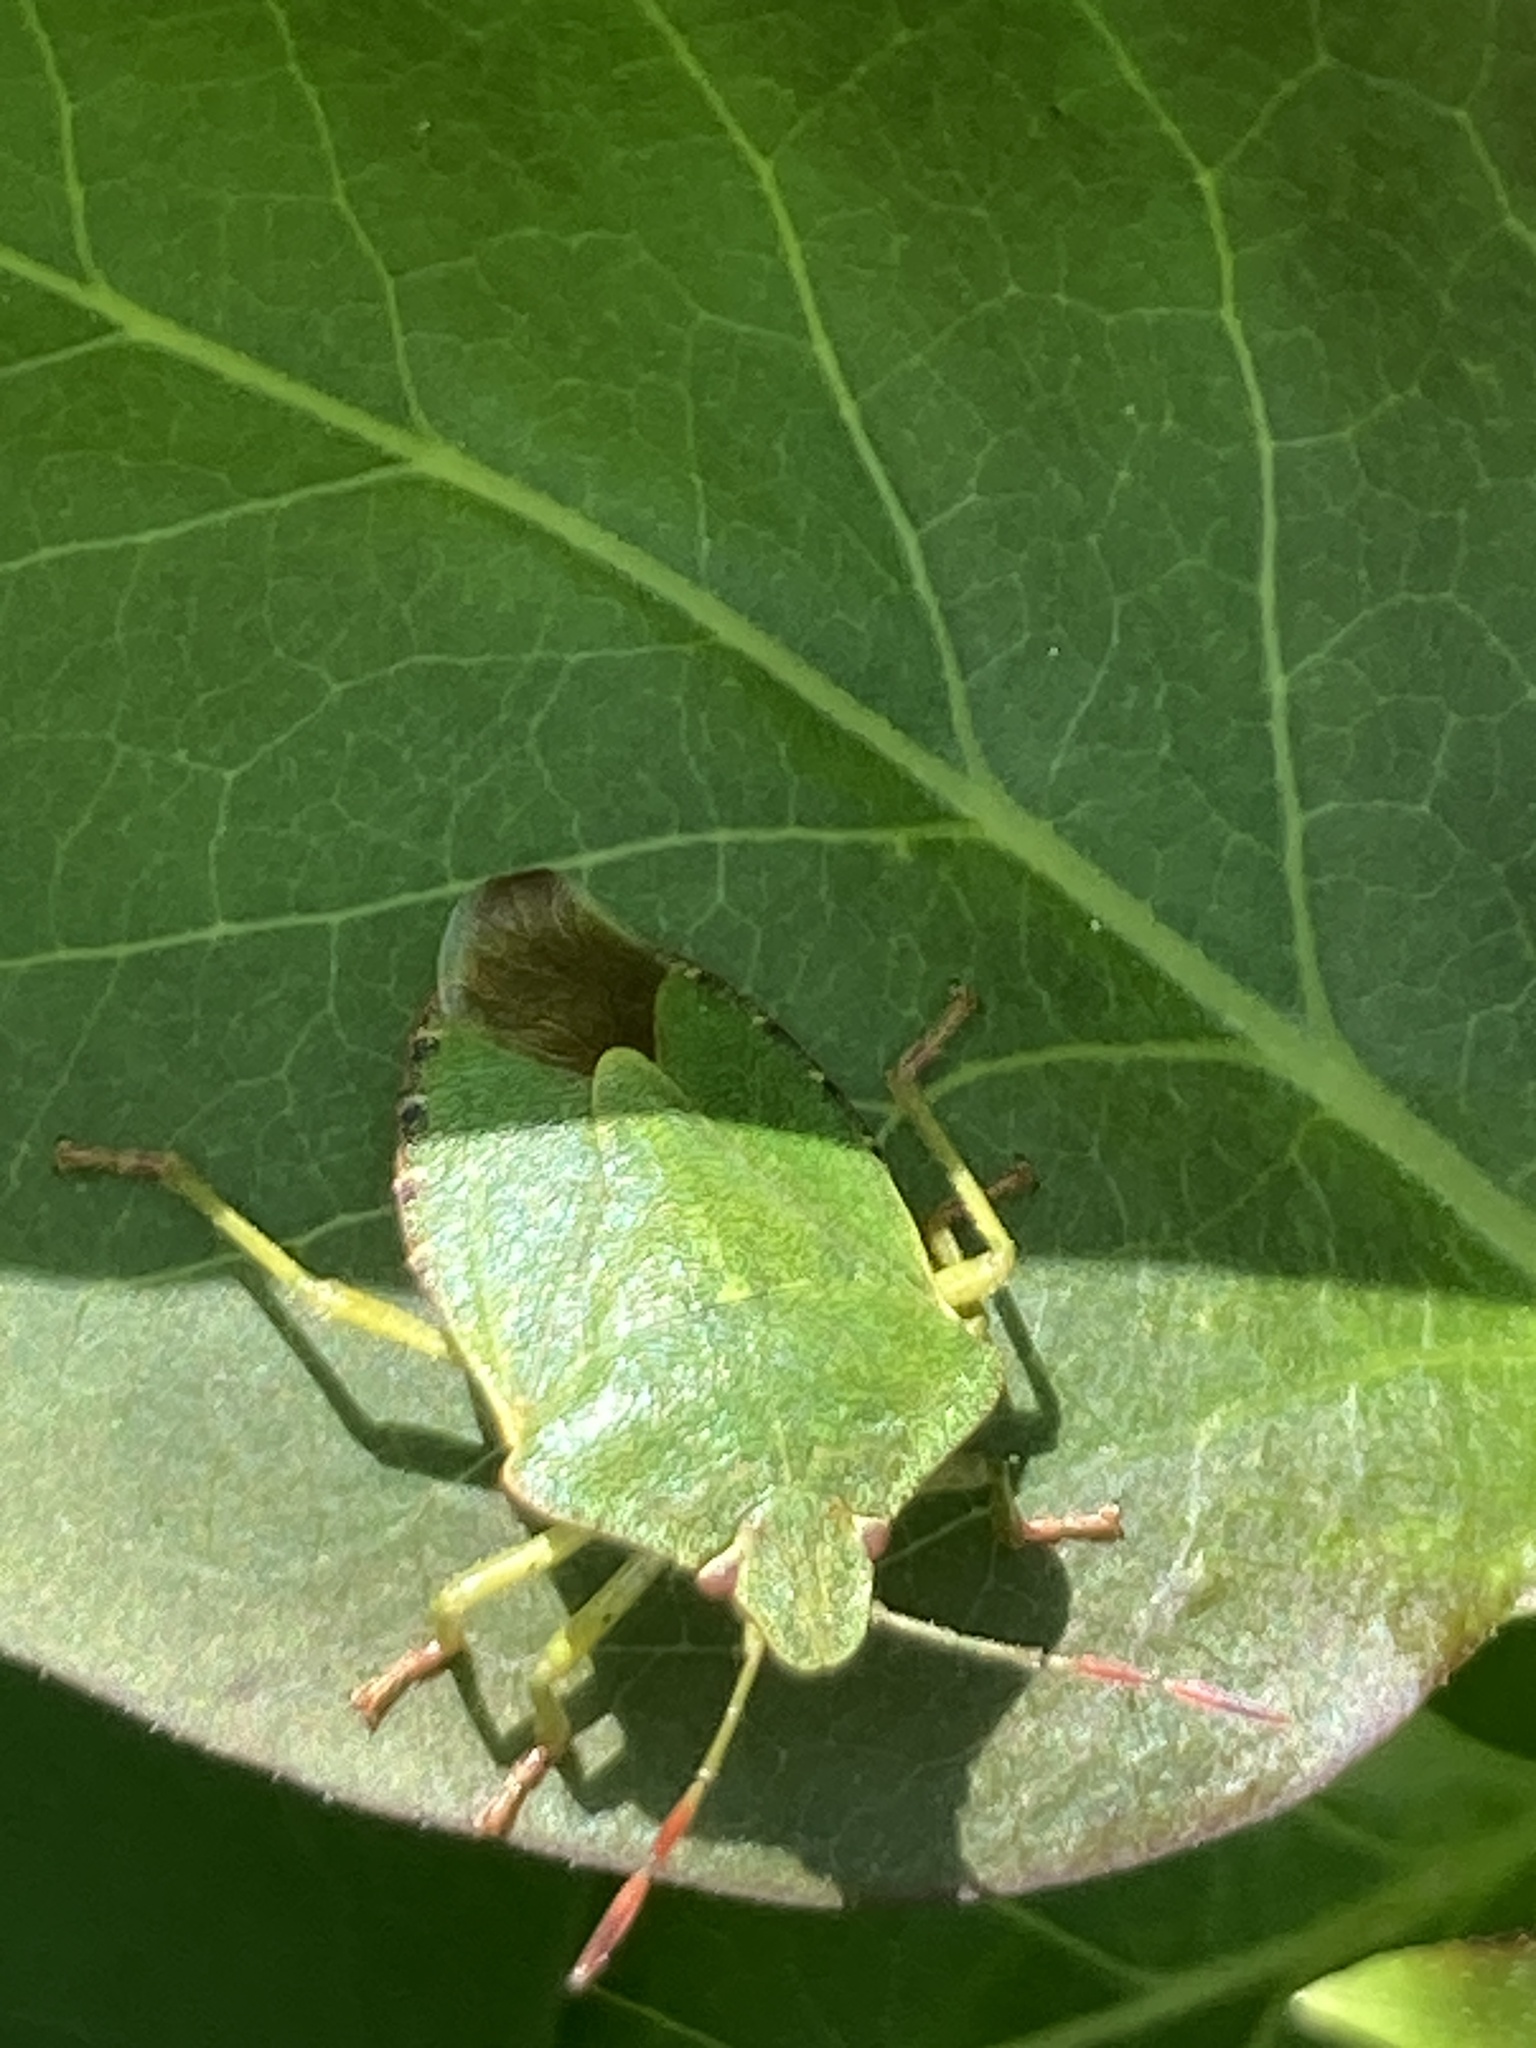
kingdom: Animalia
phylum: Arthropoda
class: Insecta
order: Hemiptera
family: Pentatomidae
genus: Palomena
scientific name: Palomena prasina
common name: Green shieldbug
